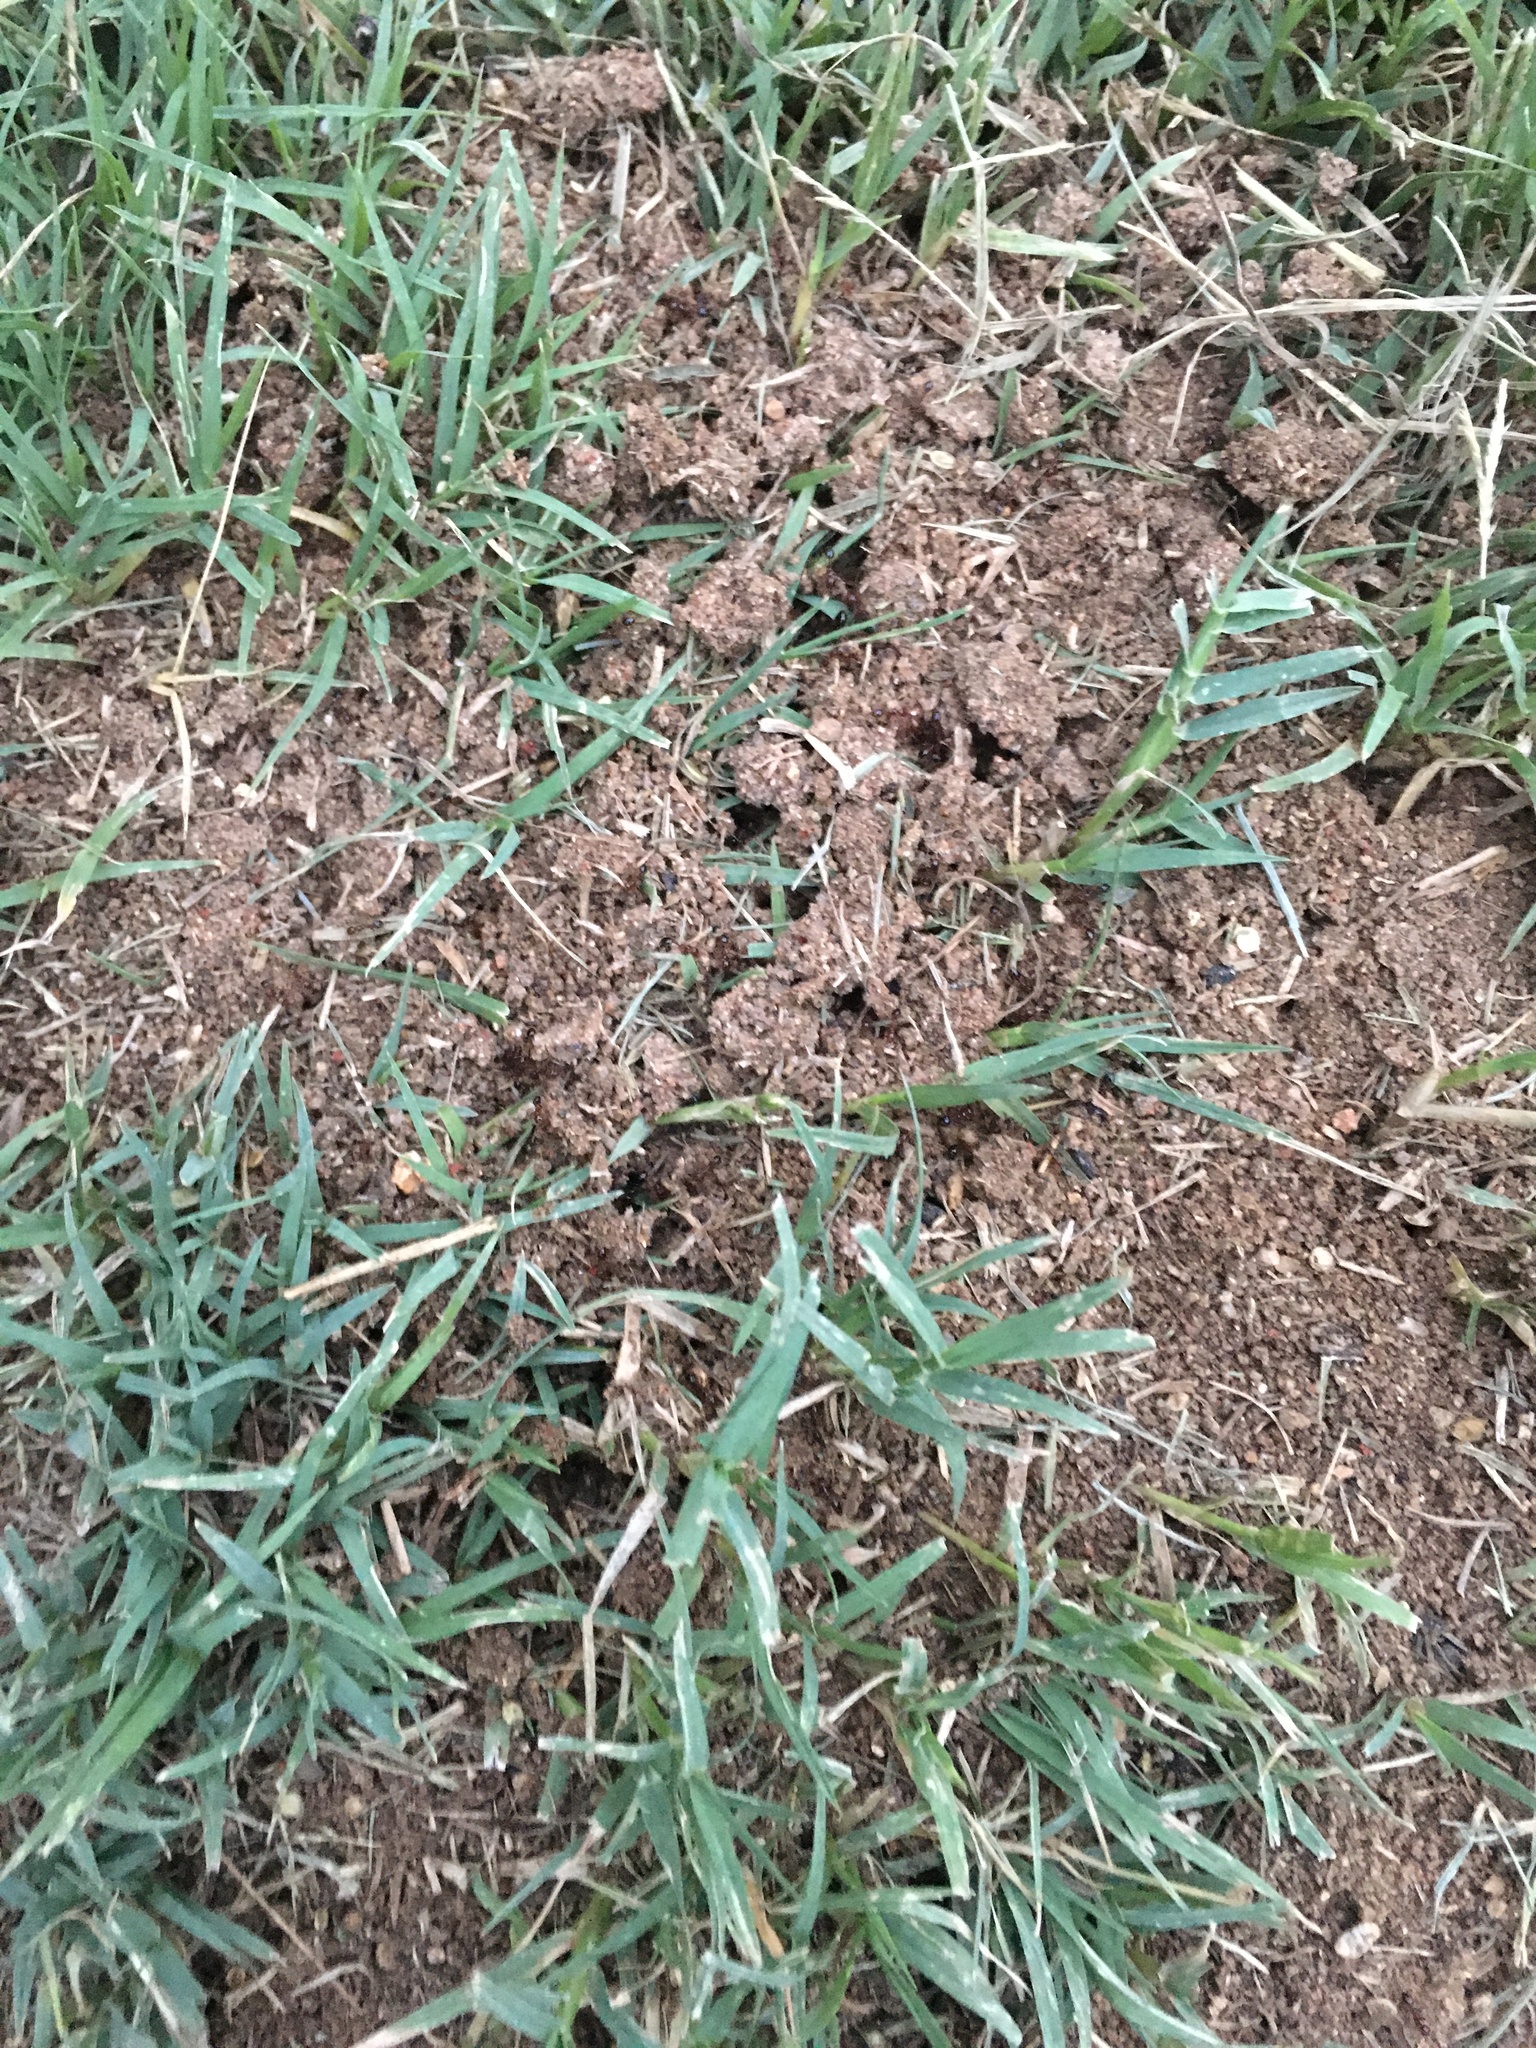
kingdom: Animalia
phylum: Arthropoda
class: Insecta
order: Hymenoptera
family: Formicidae
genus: Solenopsis
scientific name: Solenopsis invicta
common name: Red imported fire ant
